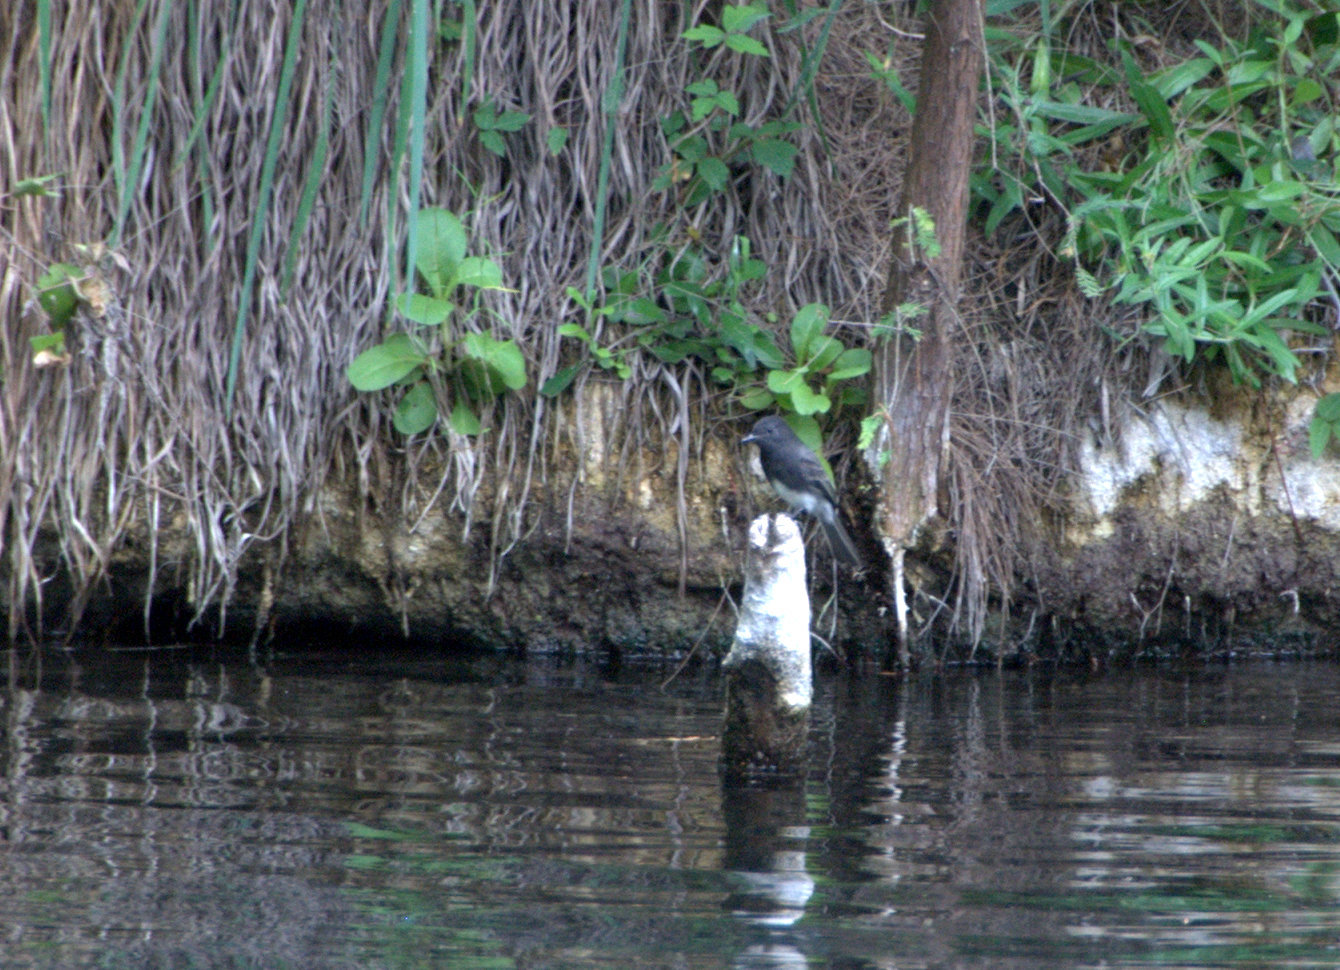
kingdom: Animalia
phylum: Chordata
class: Aves
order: Passeriformes
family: Tyrannidae
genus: Sayornis
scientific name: Sayornis nigricans
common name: Black phoebe
